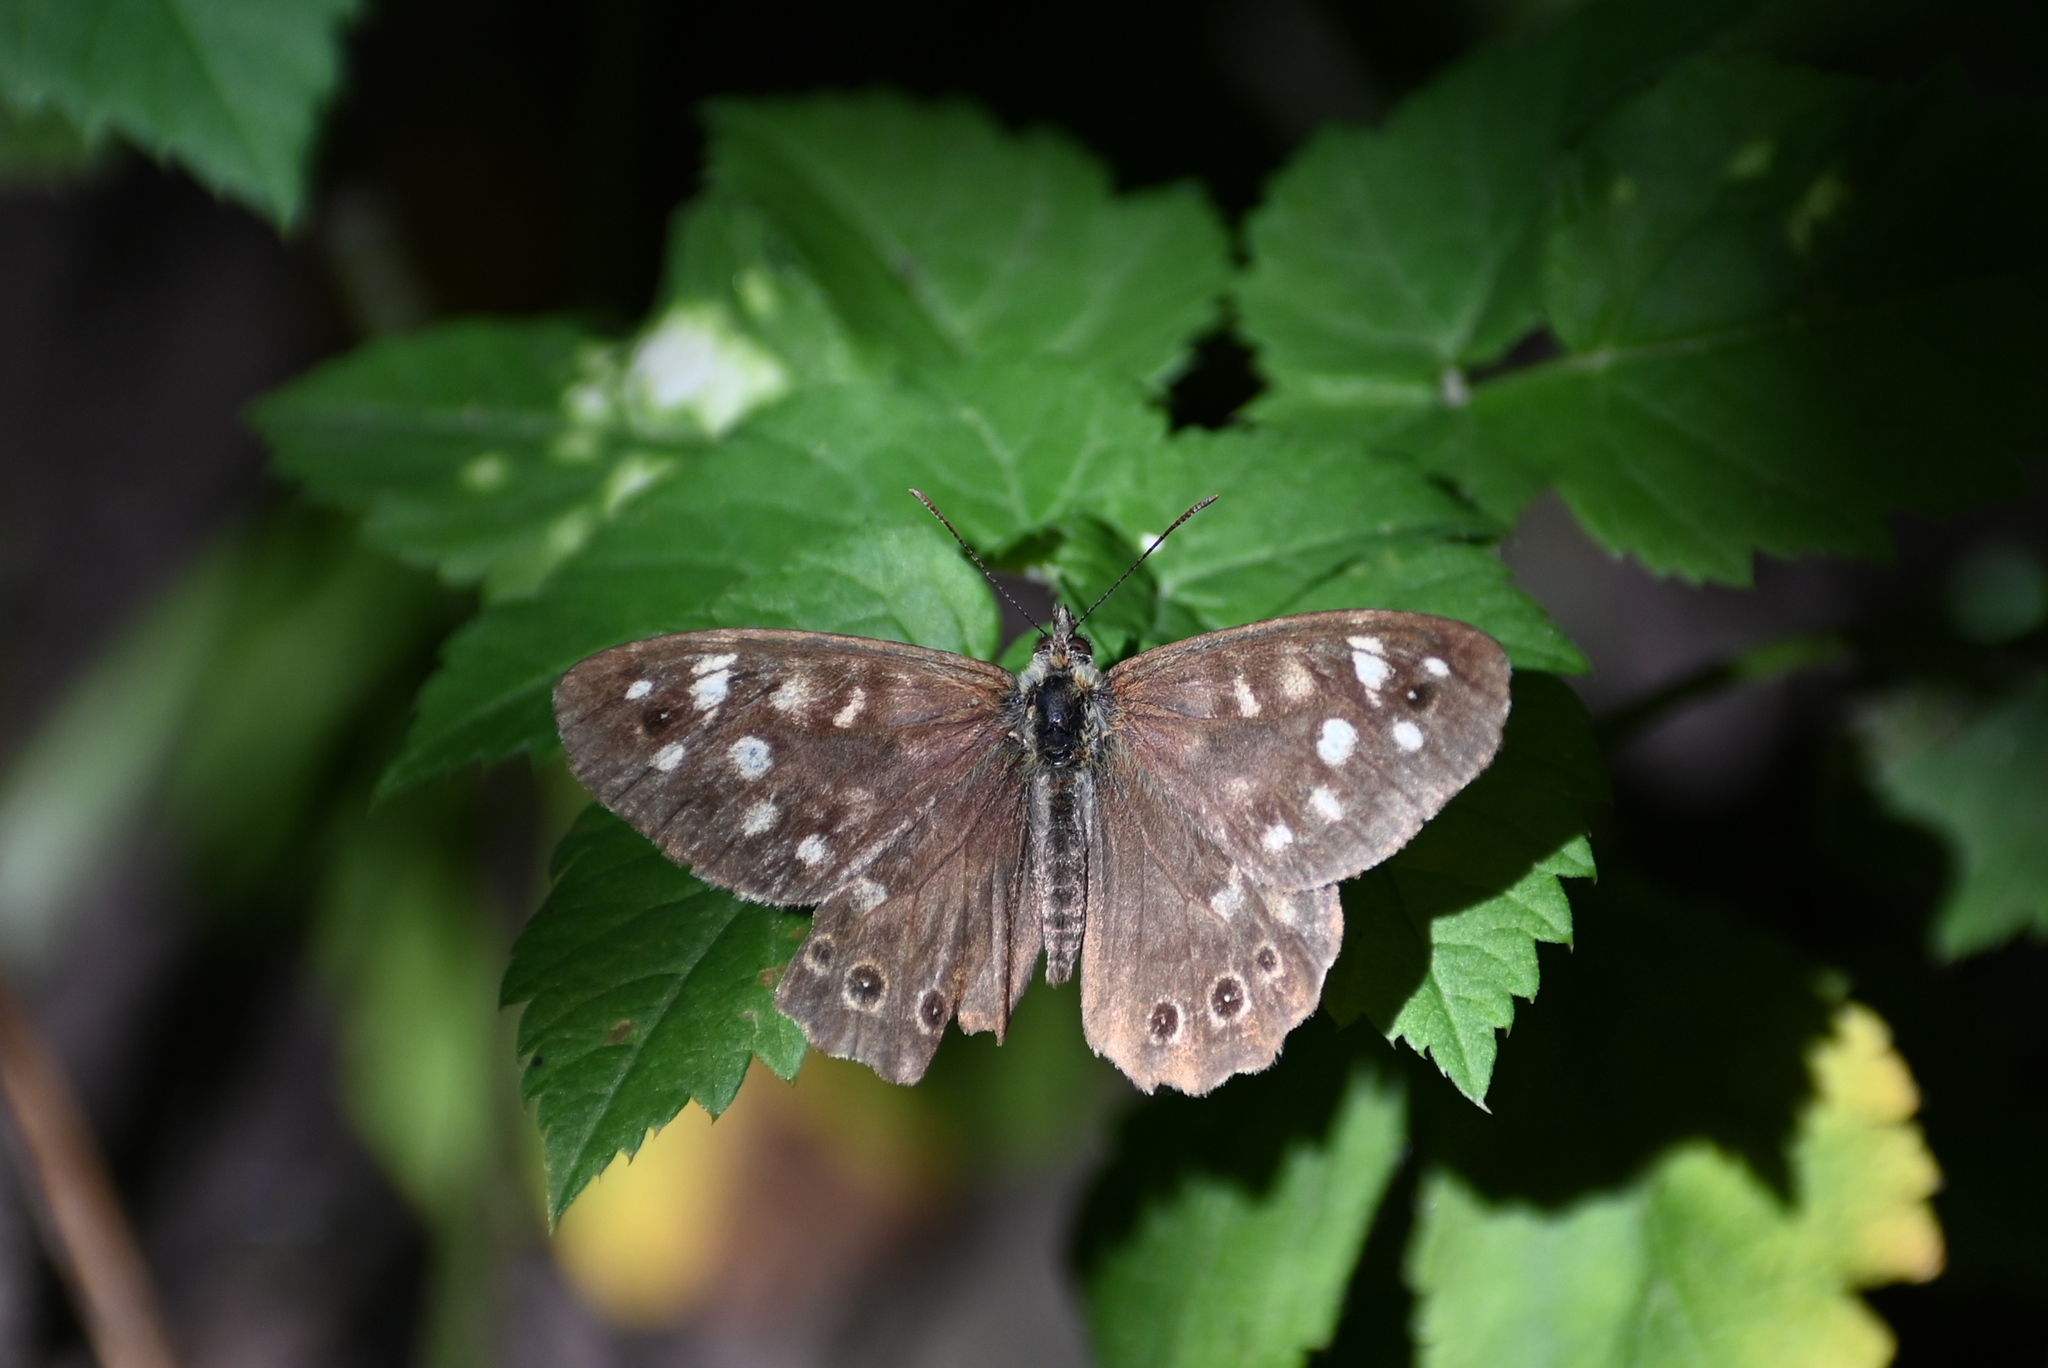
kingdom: Animalia
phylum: Arthropoda
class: Insecta
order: Lepidoptera
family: Nymphalidae
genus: Pararge
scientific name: Pararge aegeria
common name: Speckled wood
